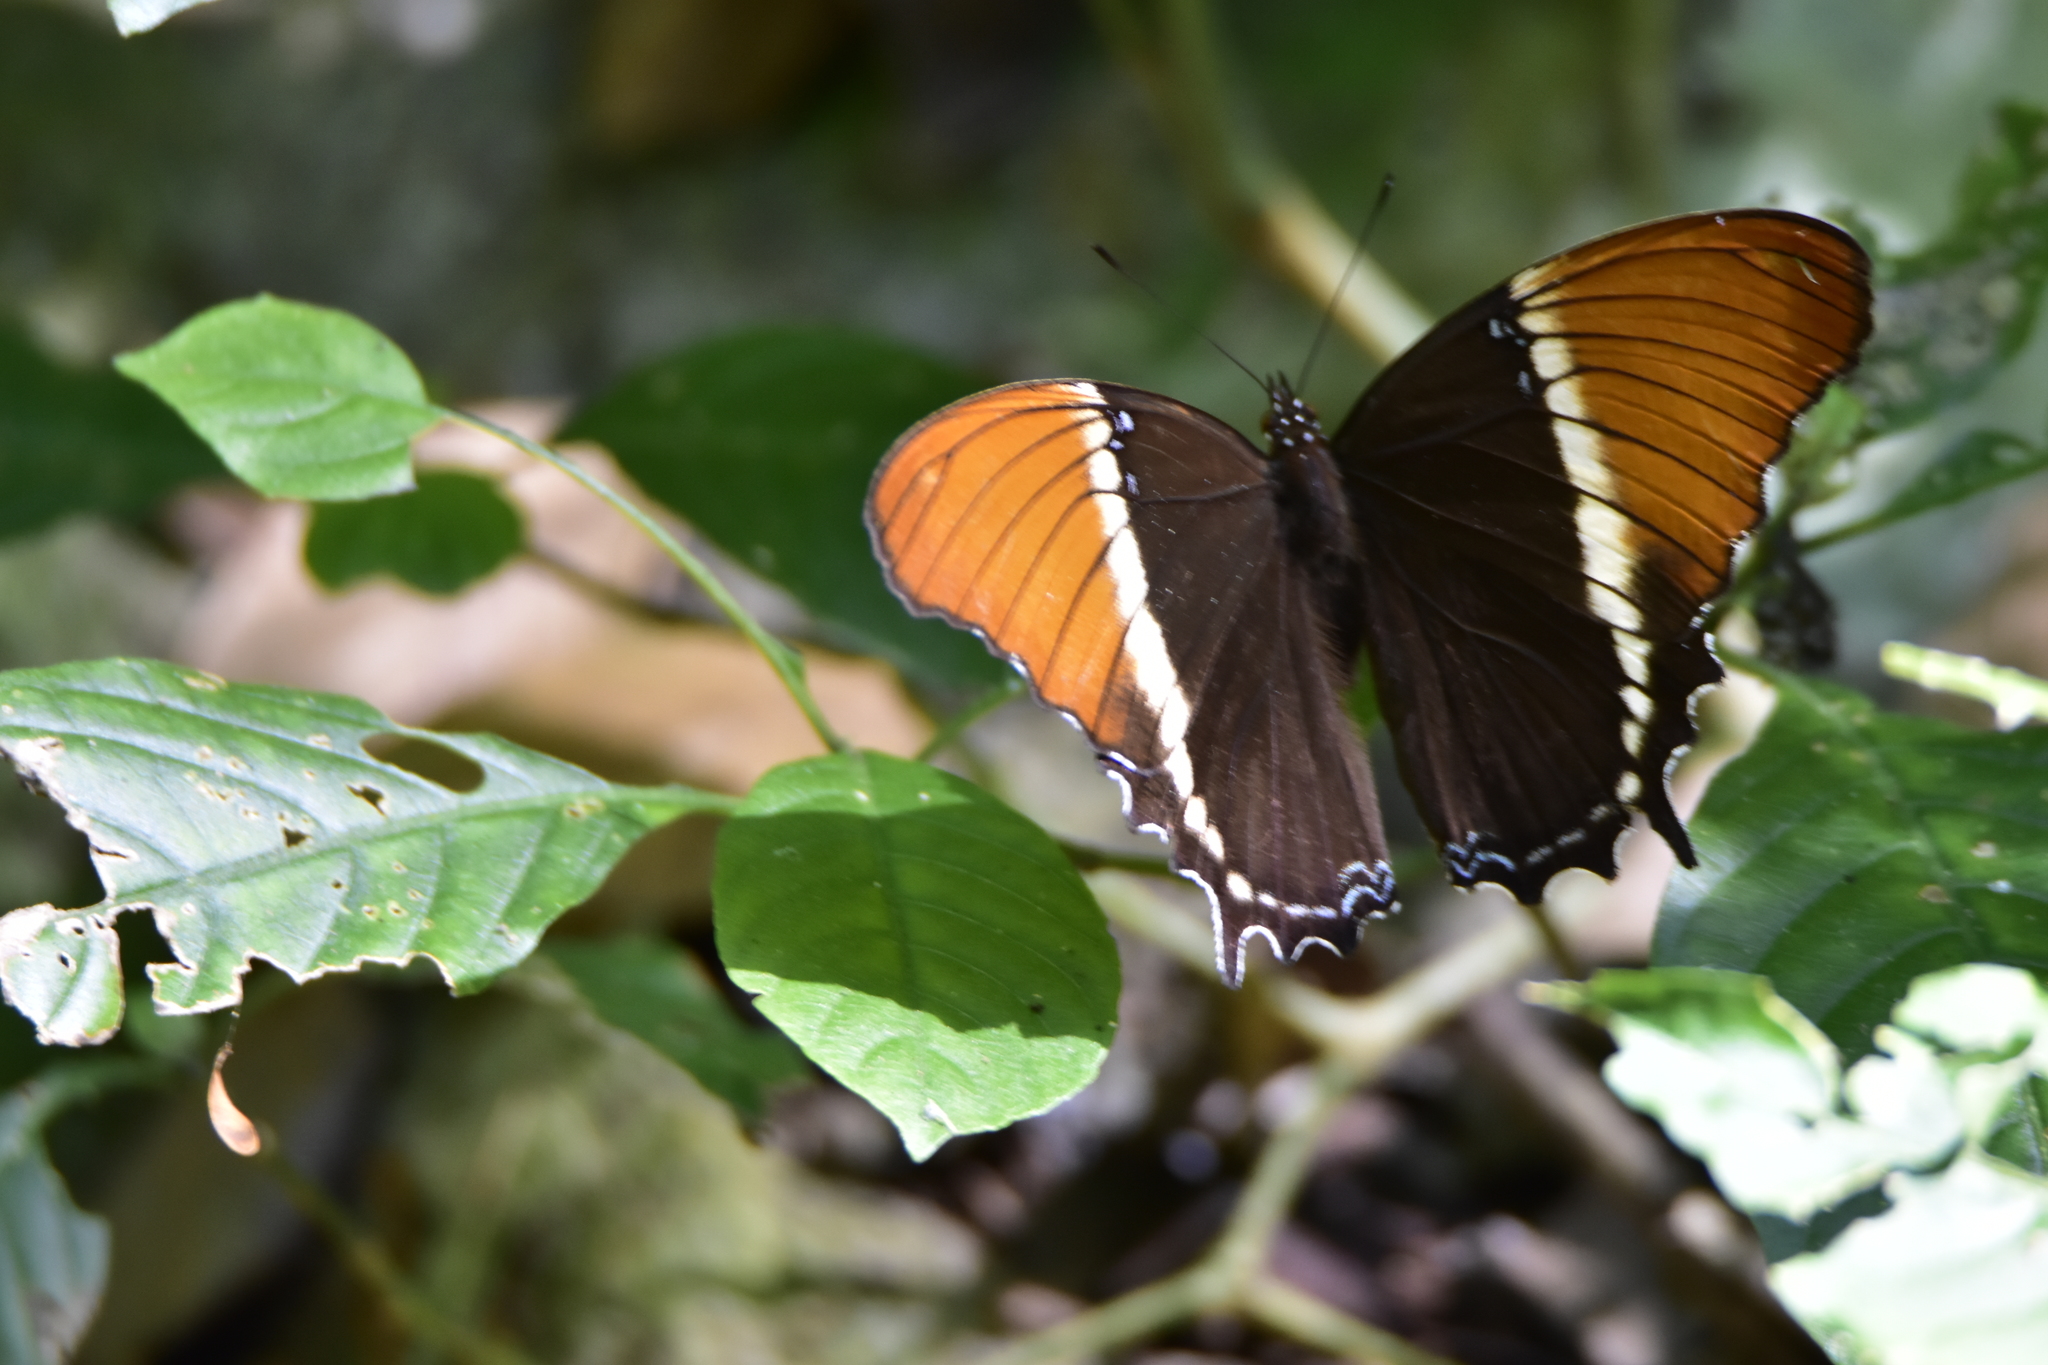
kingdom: Animalia
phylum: Arthropoda
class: Insecta
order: Lepidoptera
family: Nymphalidae
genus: Siproeta
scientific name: Siproeta epaphus
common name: Rusty-tipped page
